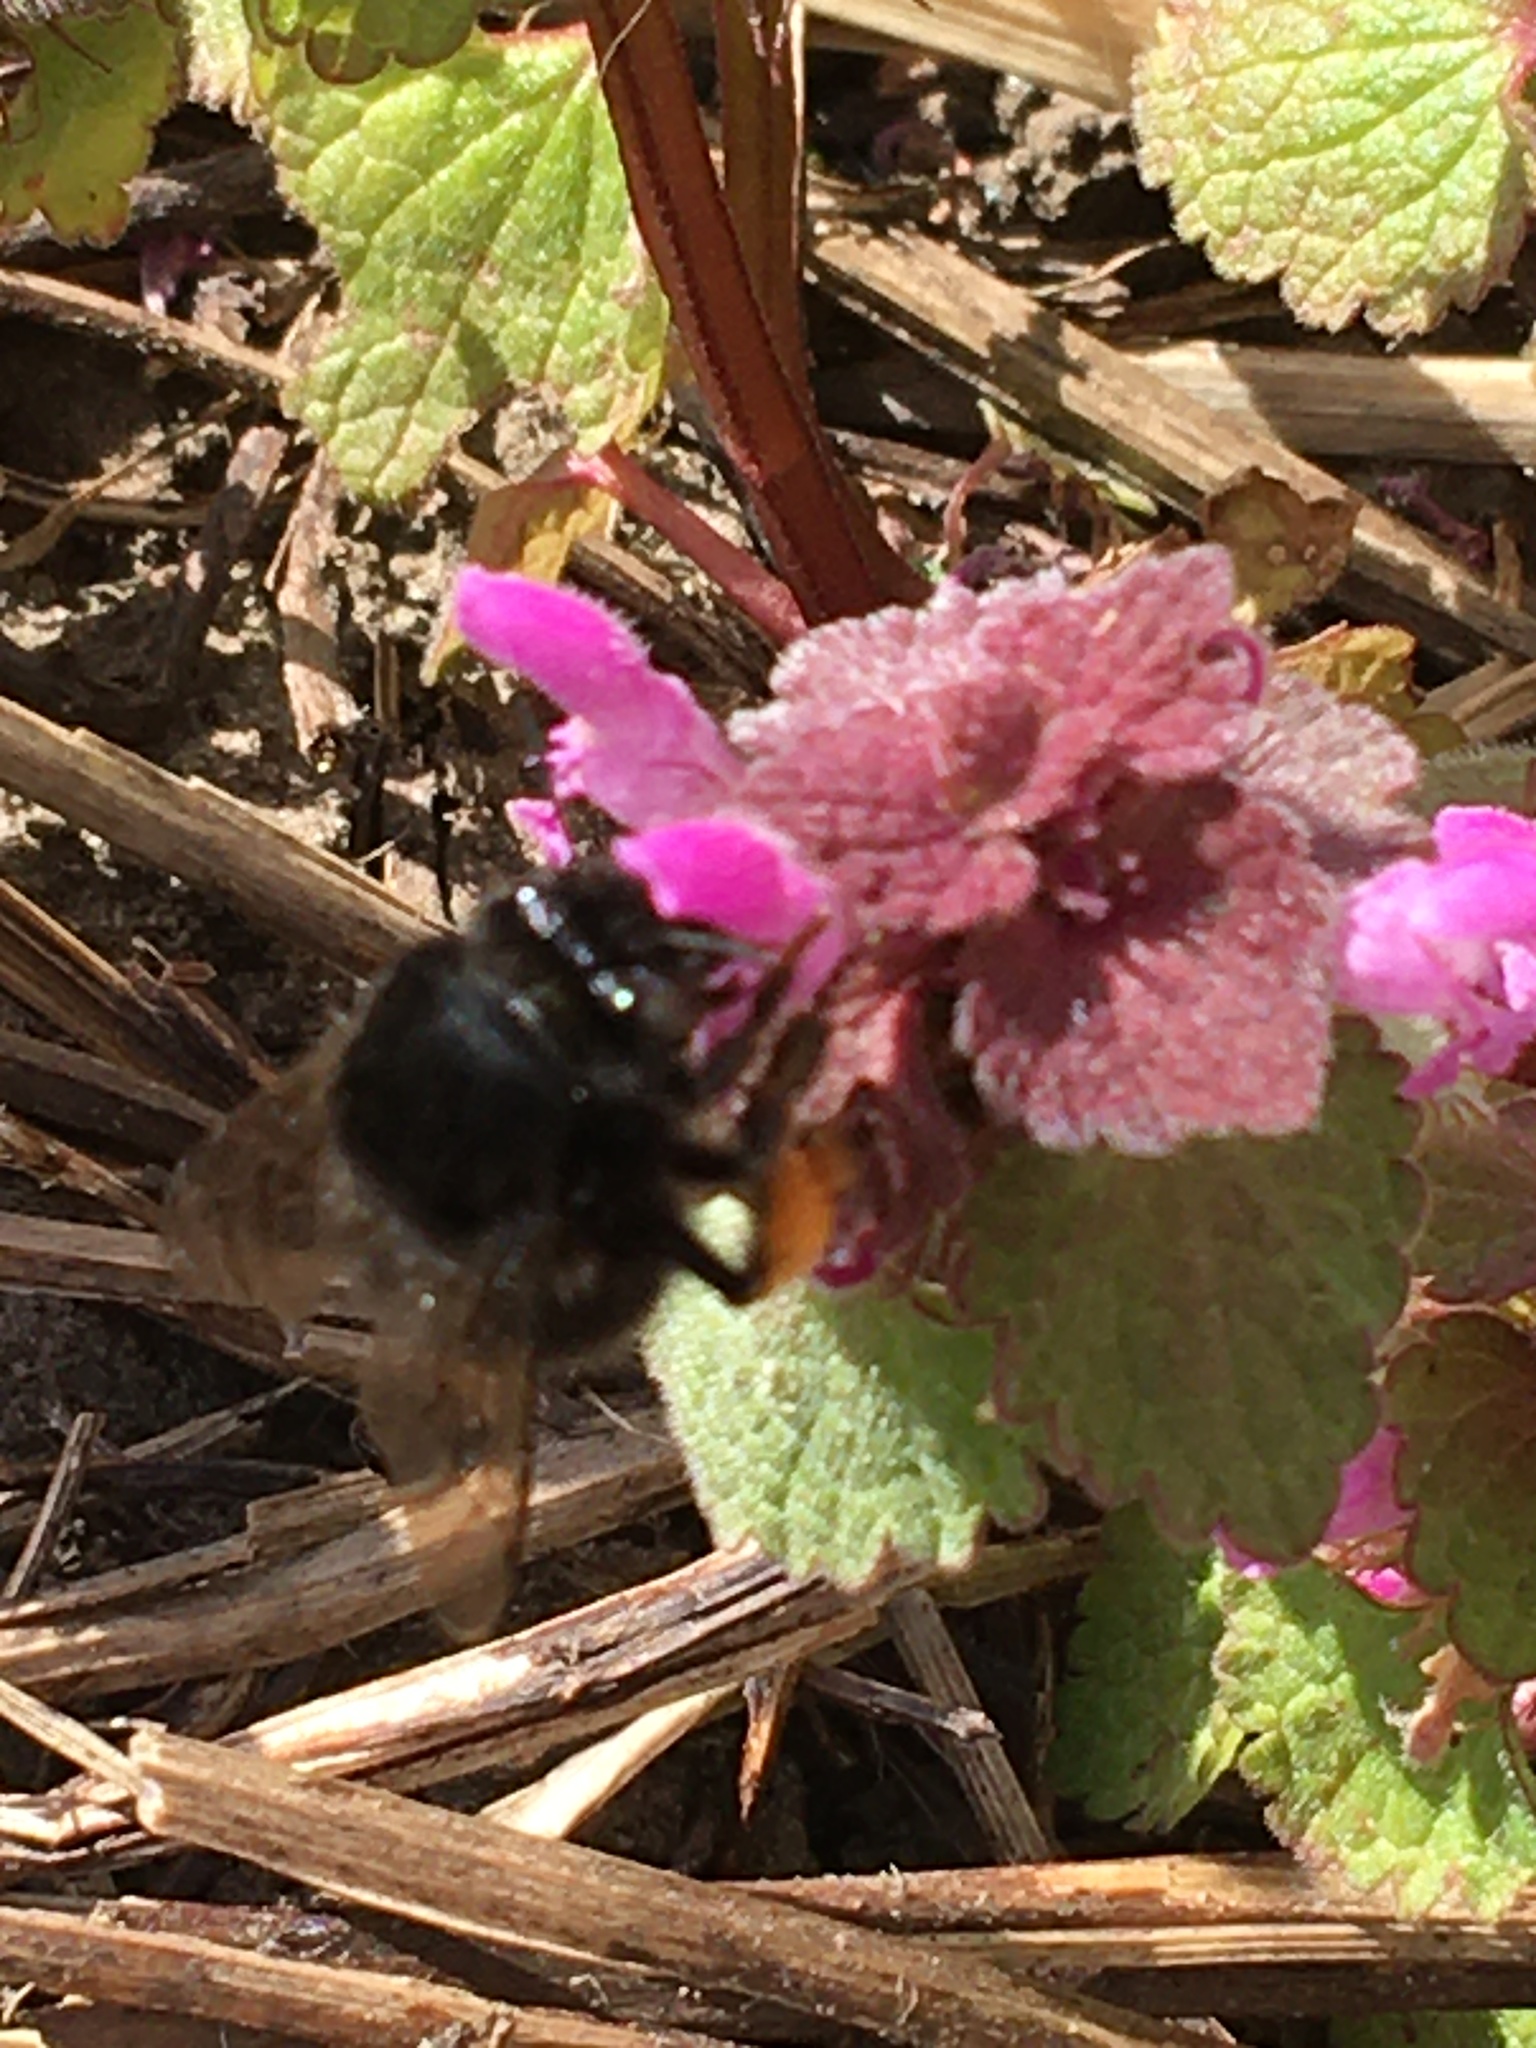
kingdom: Animalia
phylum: Arthropoda
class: Insecta
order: Hymenoptera
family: Apidae
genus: Anthophora
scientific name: Anthophora plumipes
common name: Hairy-footed flower bee
